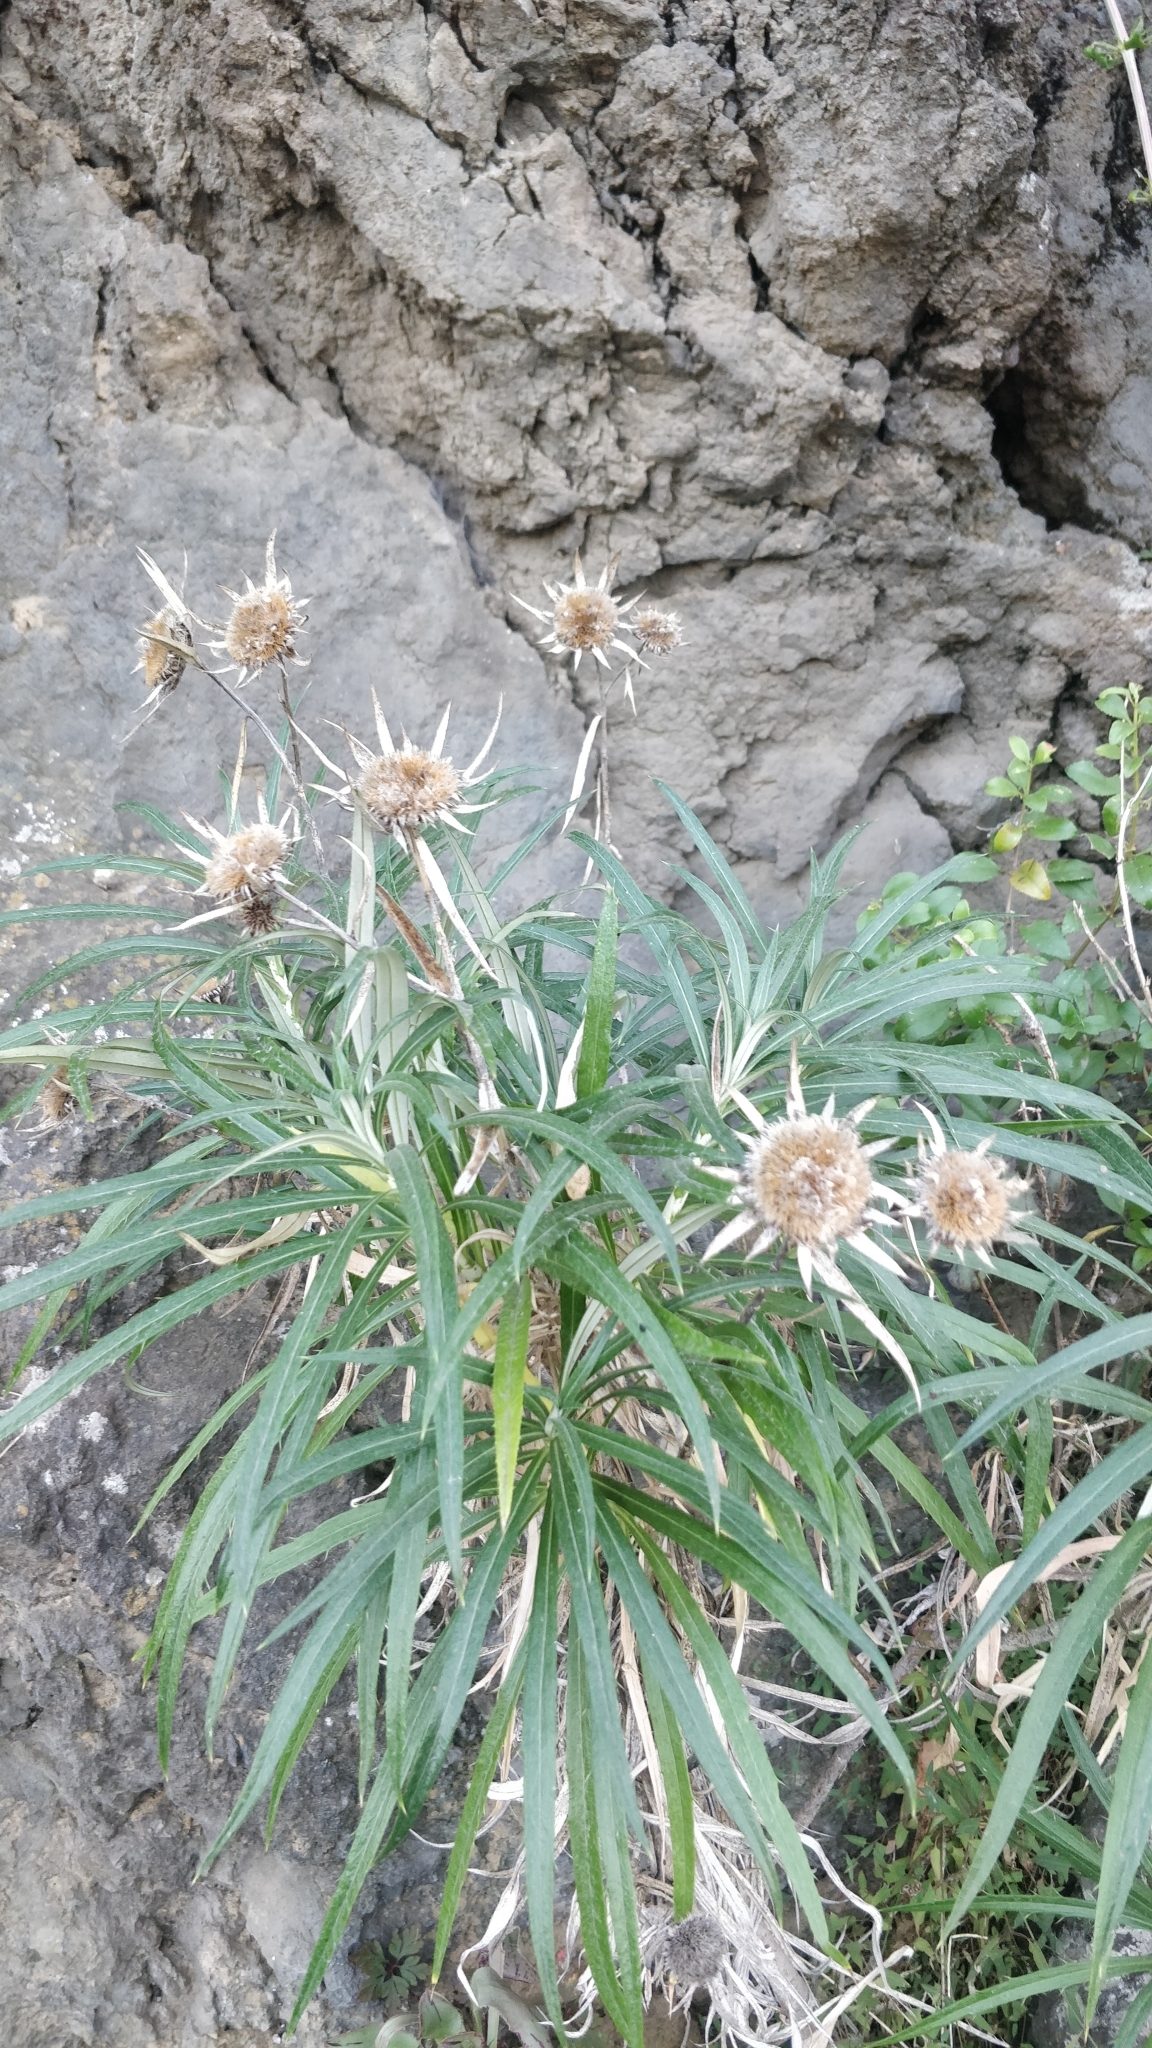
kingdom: Plantae
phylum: Tracheophyta
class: Magnoliopsida
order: Asterales
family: Asteraceae
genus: Carlina
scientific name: Carlina salicifolia
